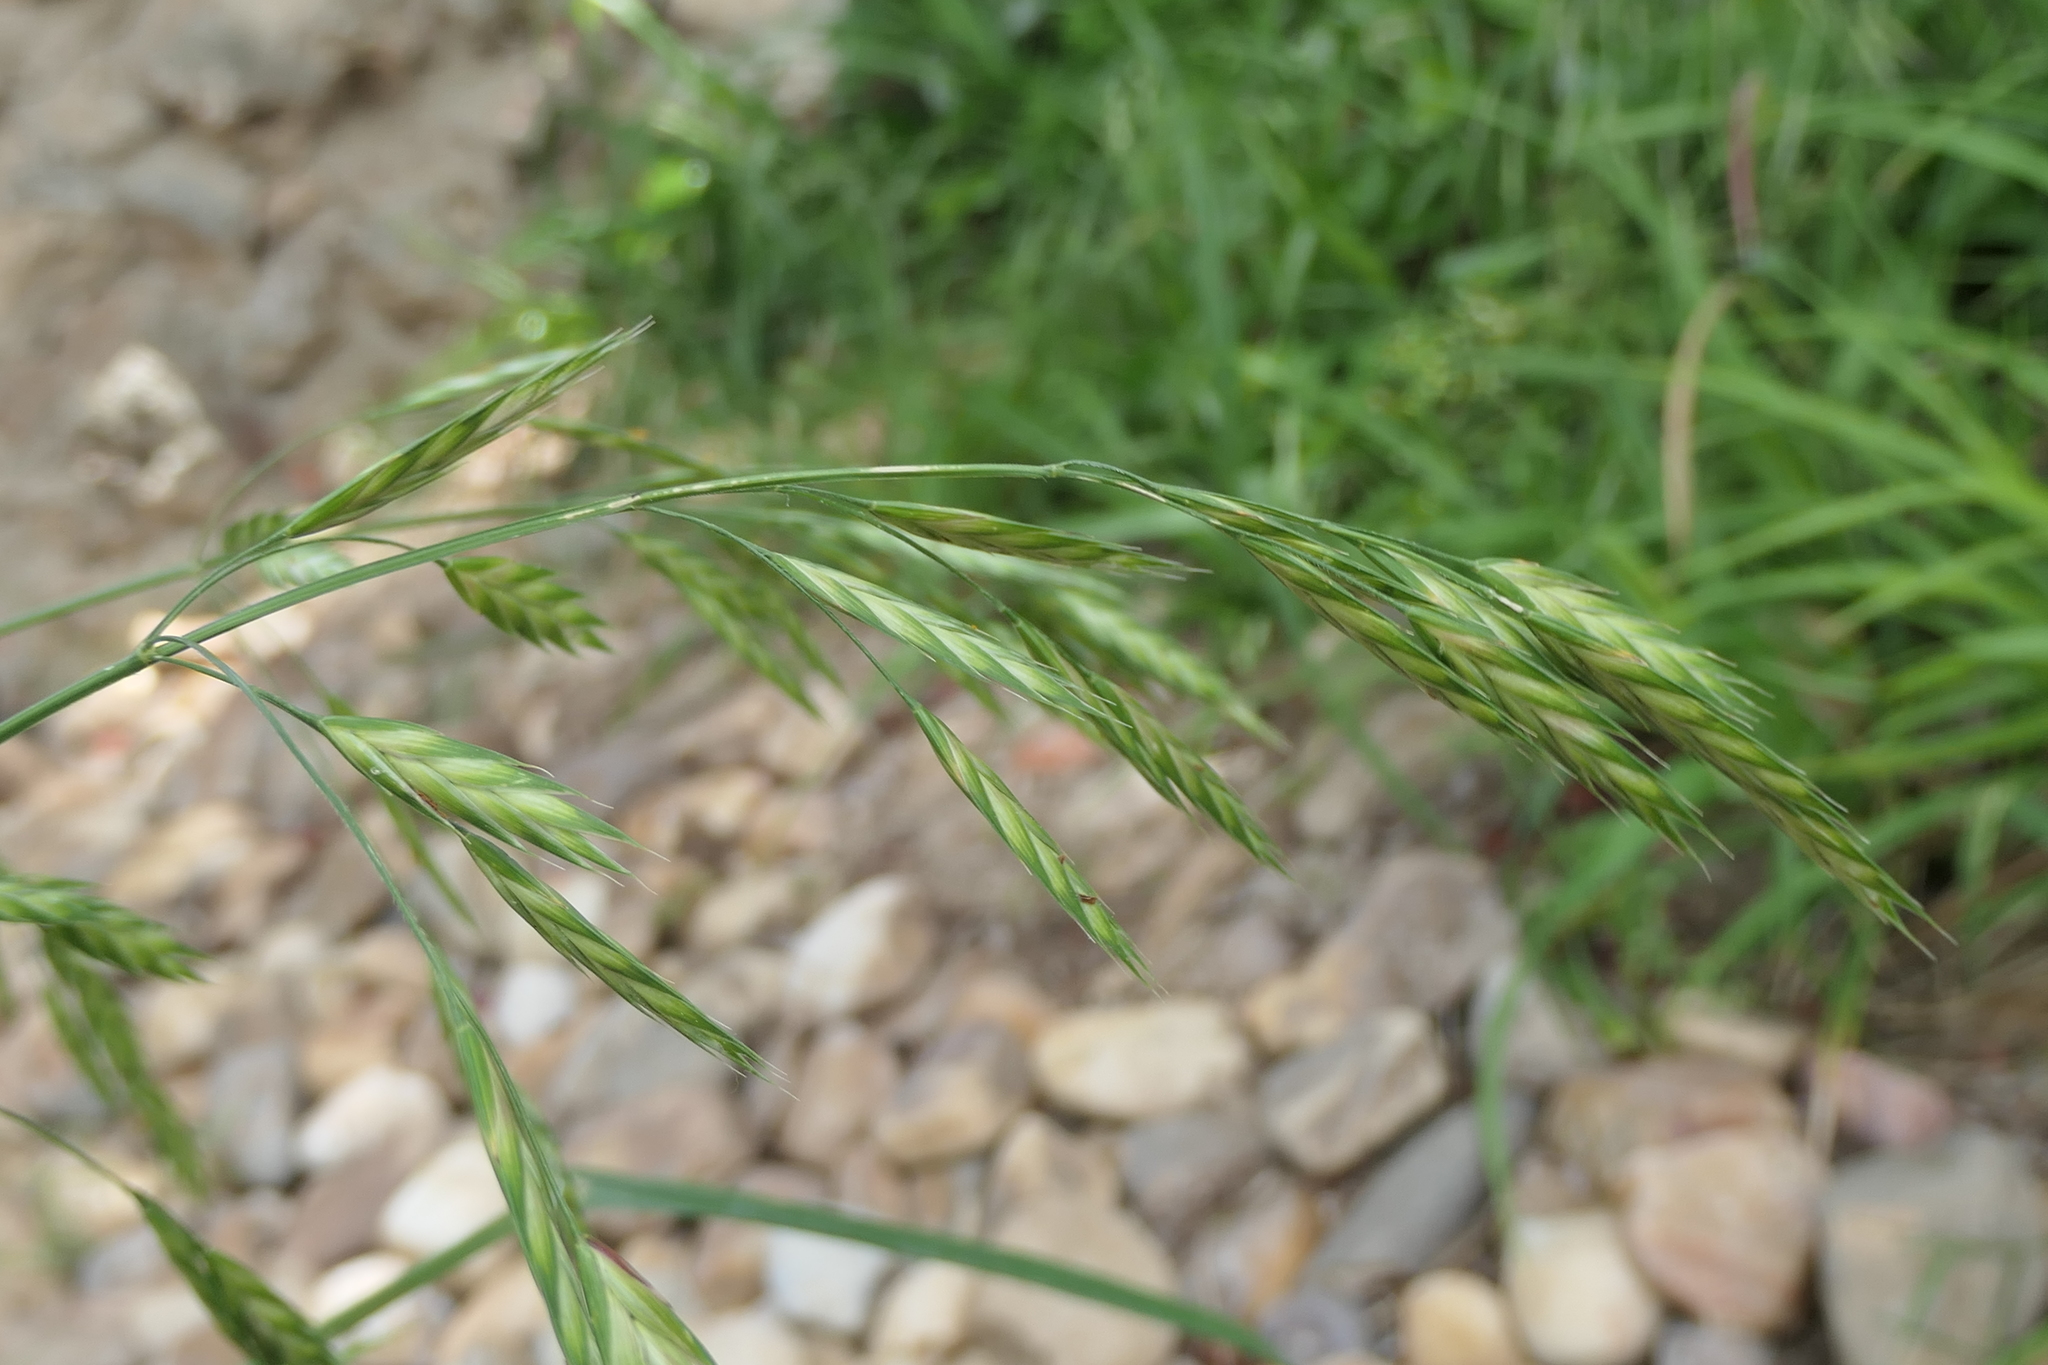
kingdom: Plantae
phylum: Tracheophyta
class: Liliopsida
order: Poales
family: Poaceae
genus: Bromus
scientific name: Bromus catharticus
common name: Rescuegrass
